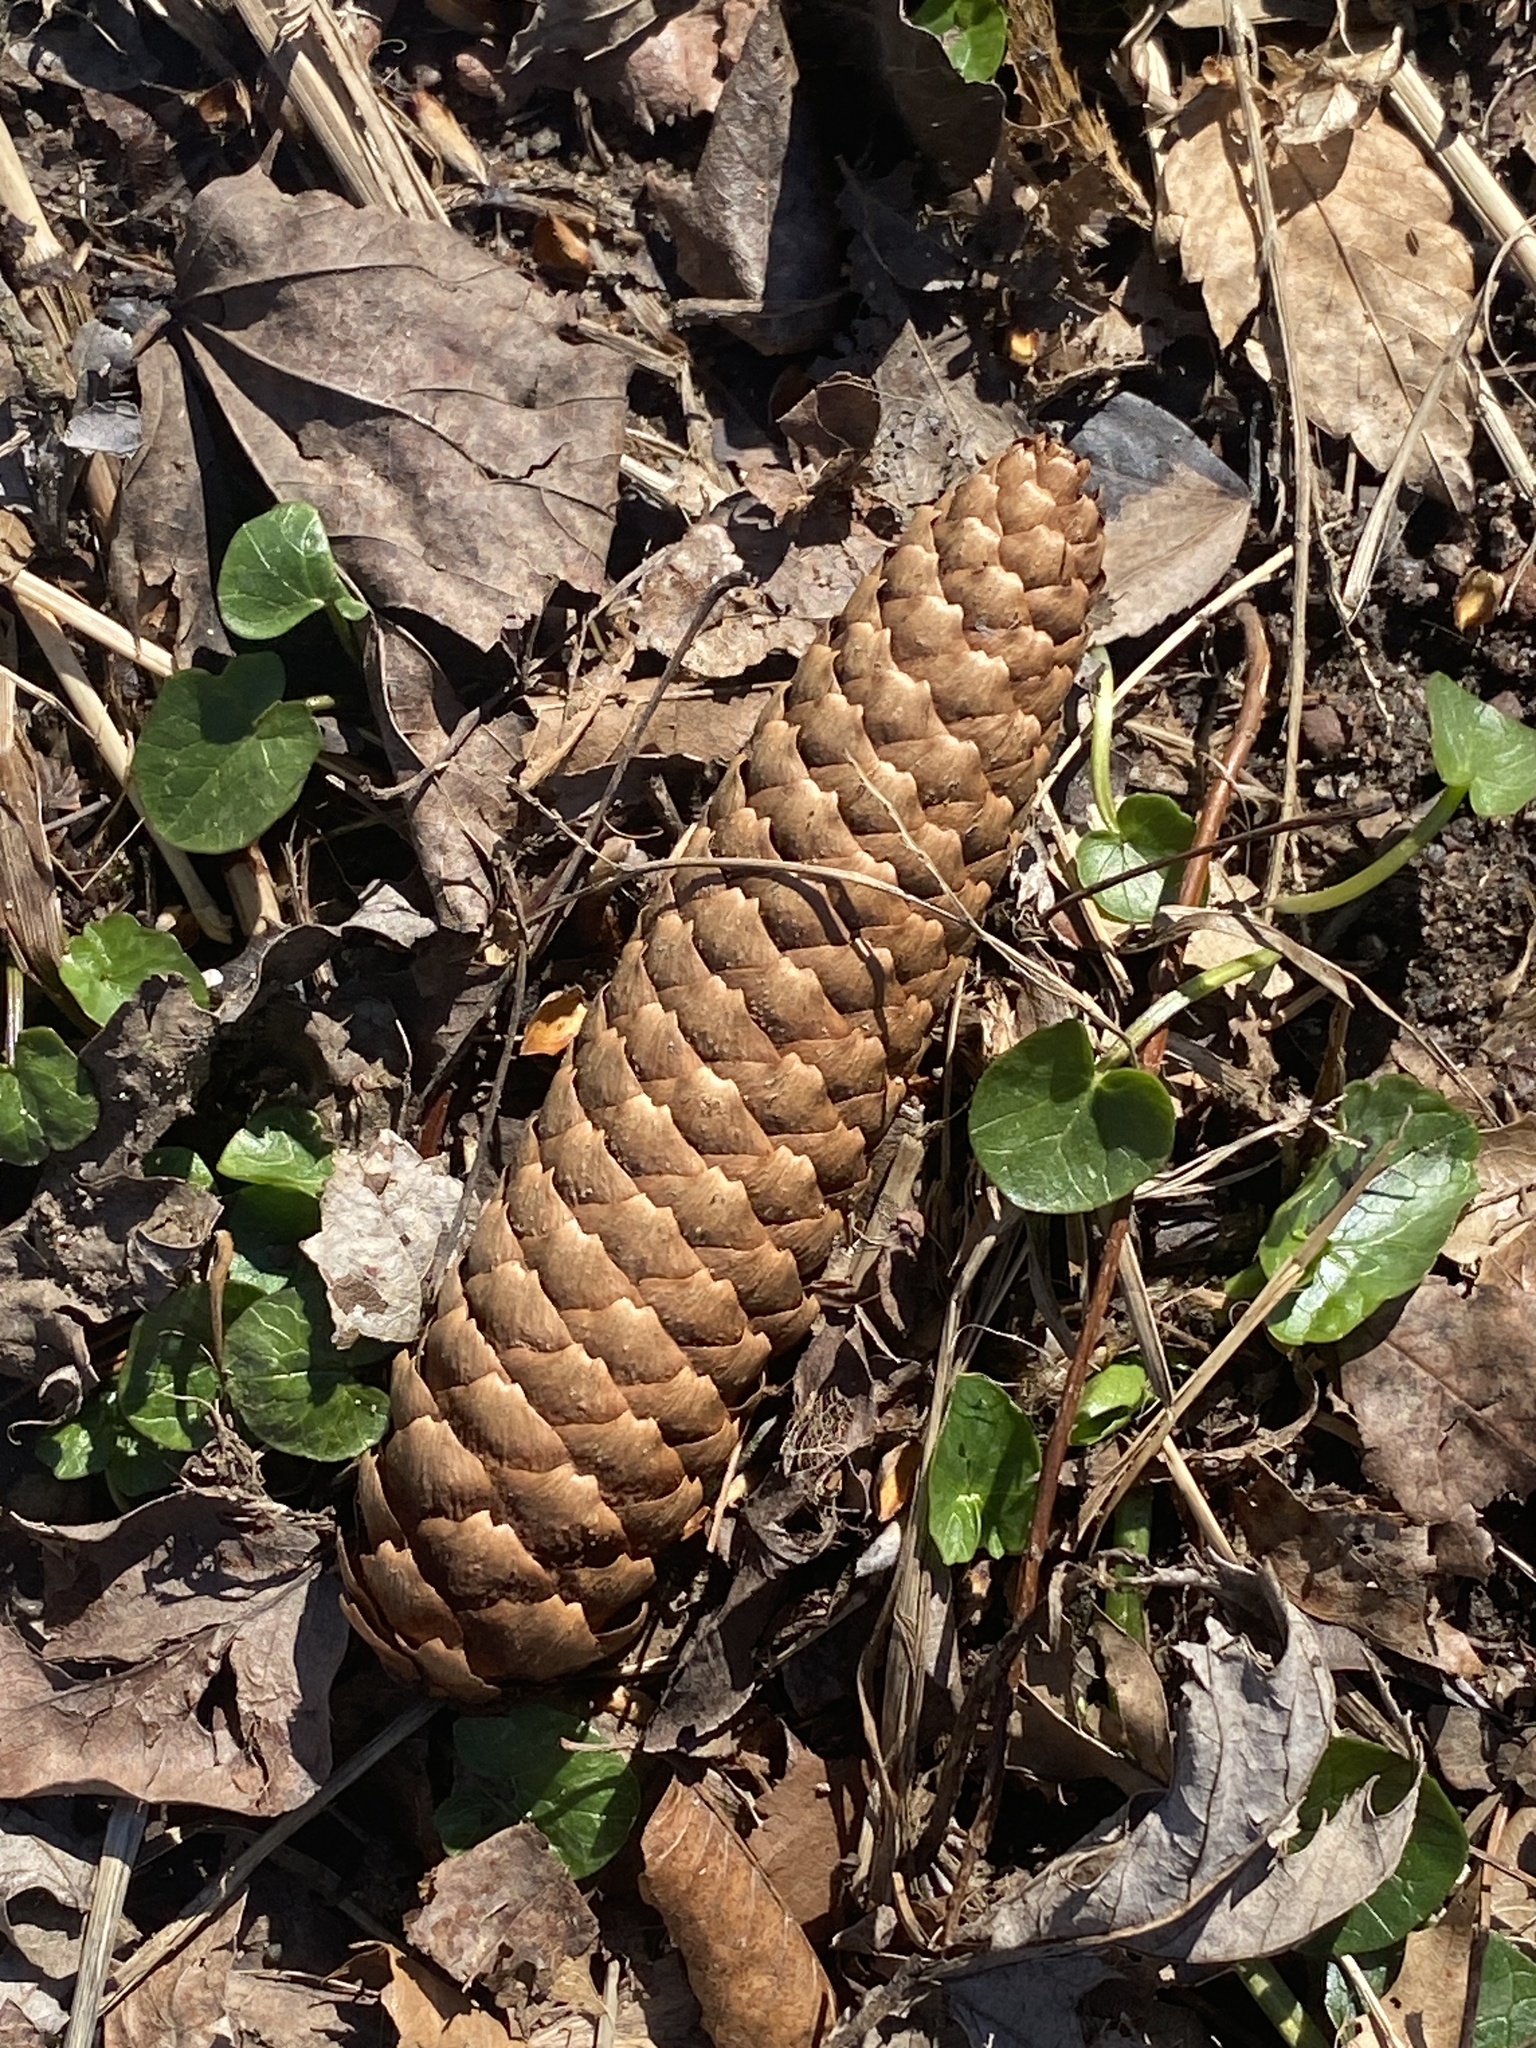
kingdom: Plantae
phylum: Tracheophyta
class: Pinopsida
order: Pinales
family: Pinaceae
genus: Picea
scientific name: Picea abies
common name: Norway spruce
